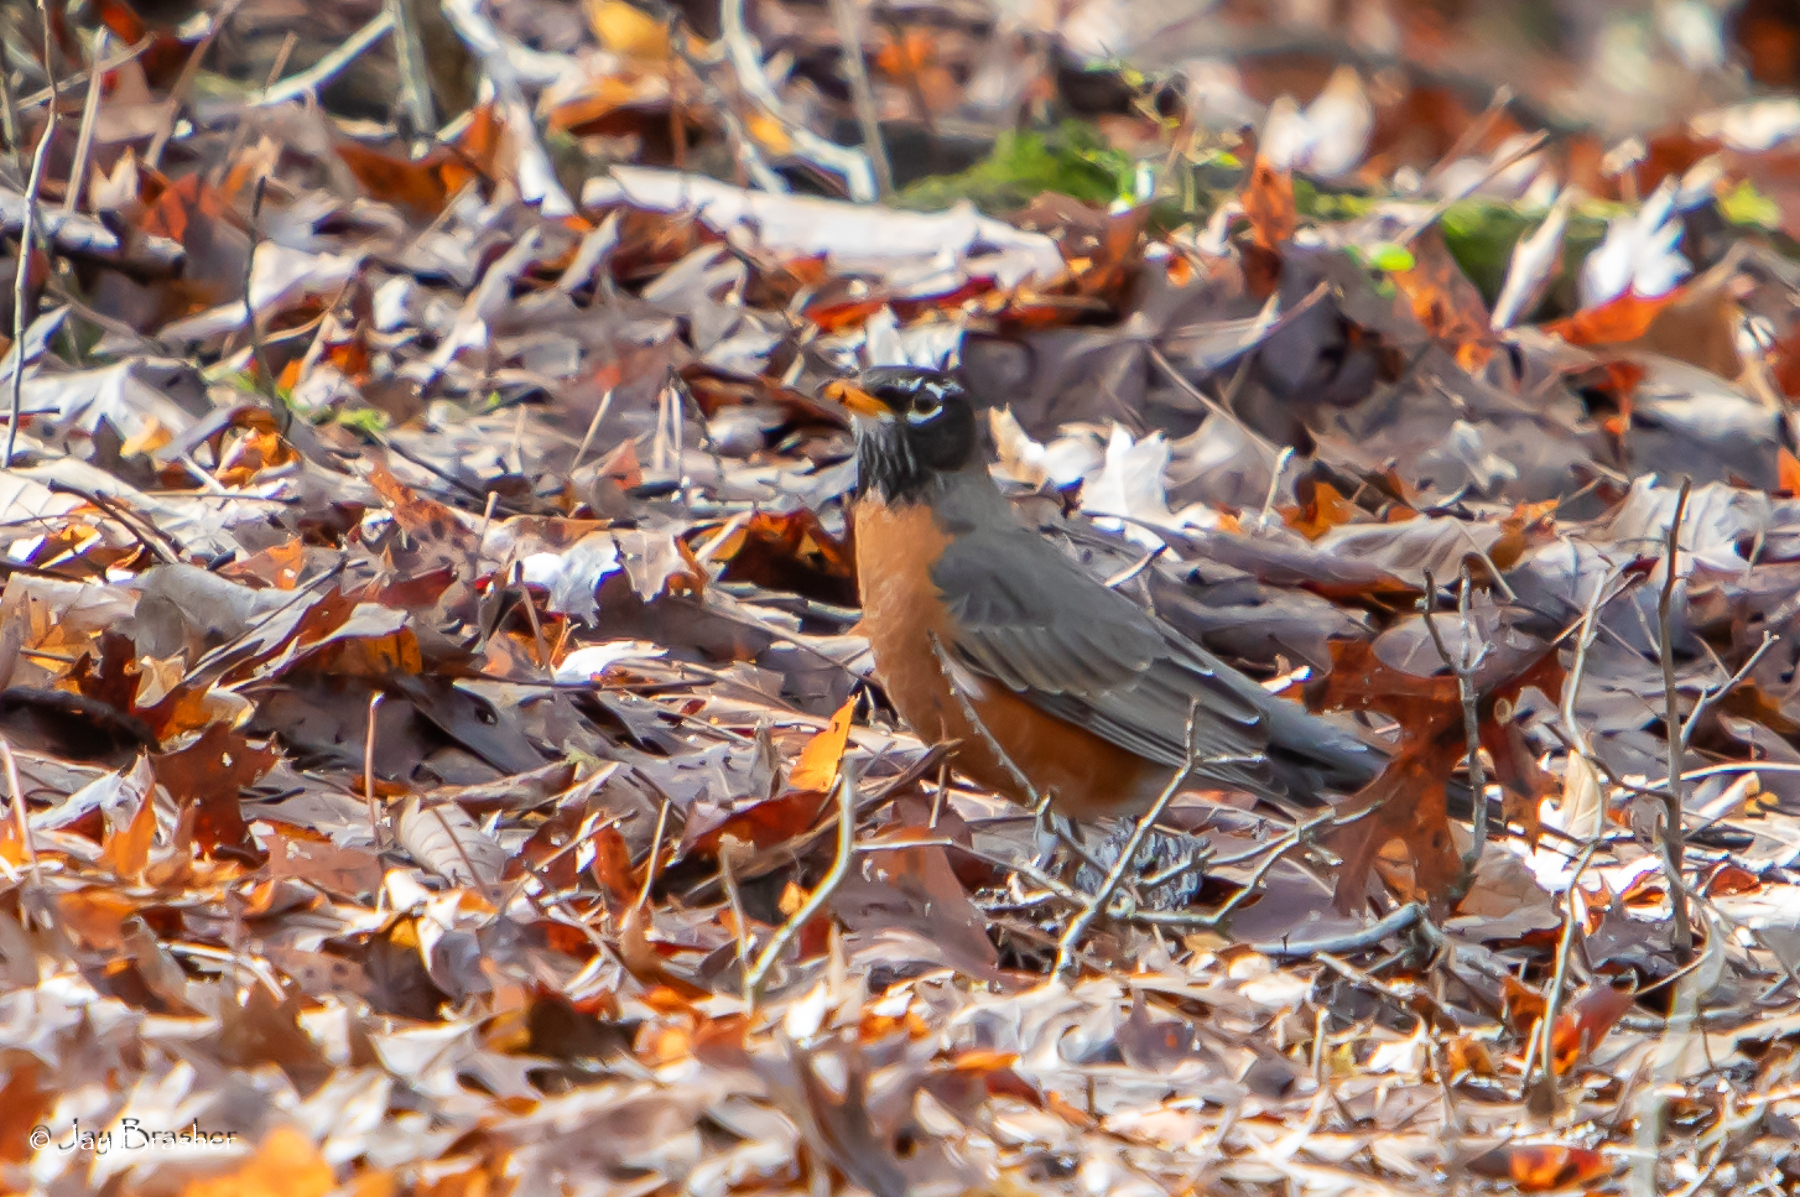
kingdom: Animalia
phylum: Chordata
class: Aves
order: Passeriformes
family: Turdidae
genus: Turdus
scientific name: Turdus migratorius
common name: American robin
